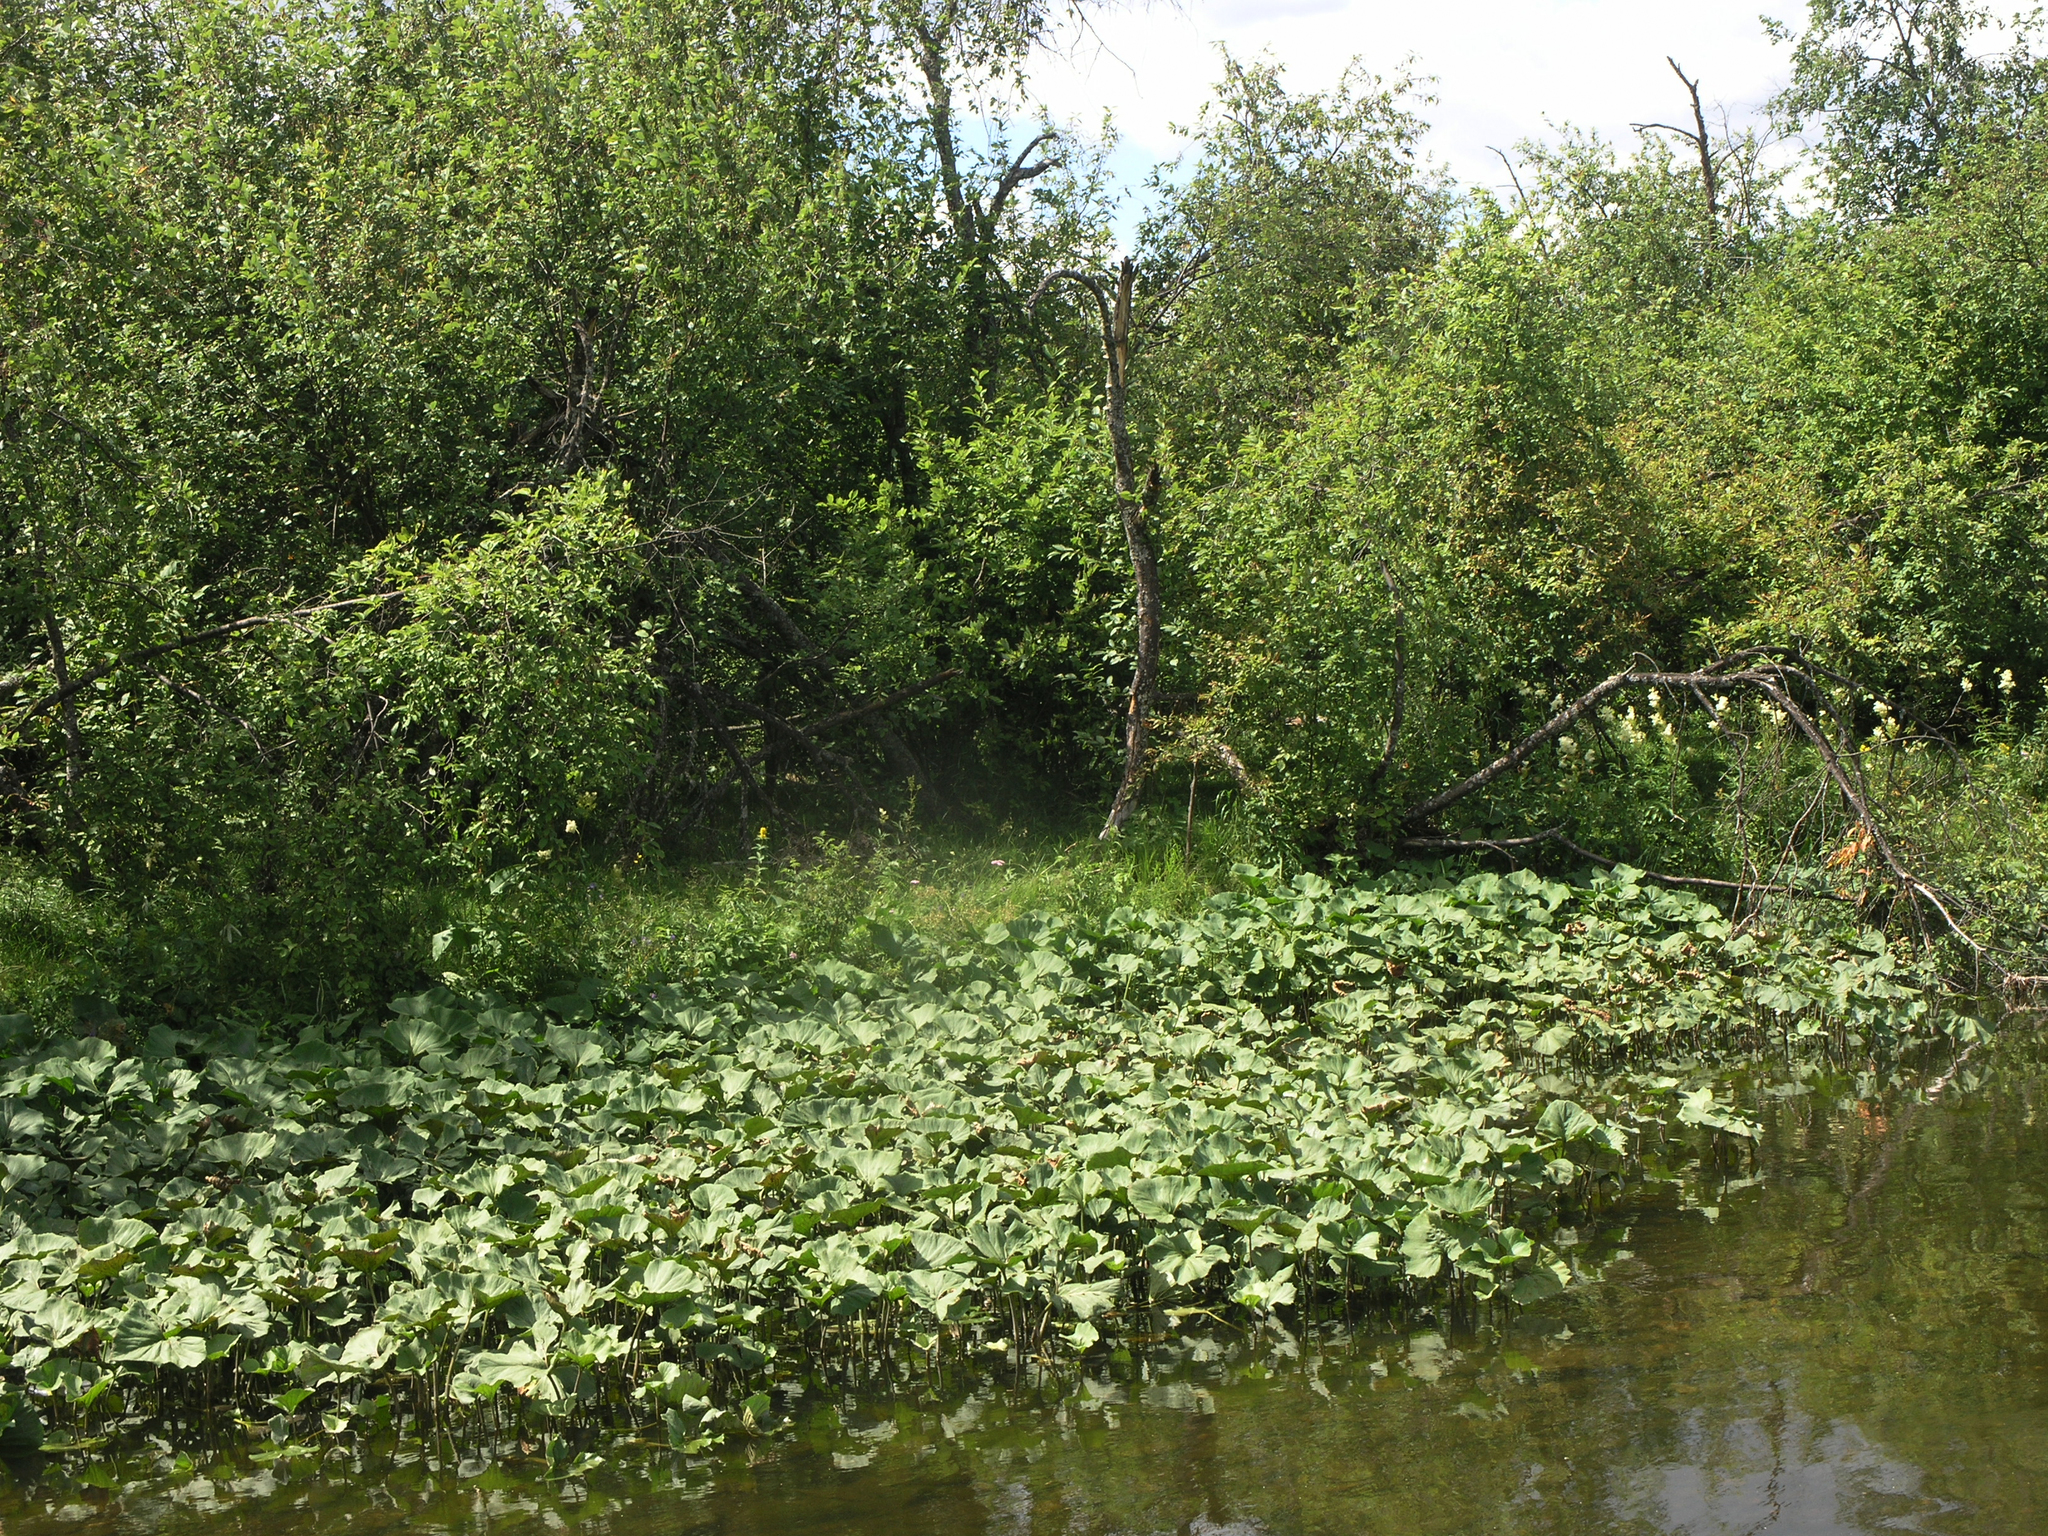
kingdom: Plantae
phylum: Tracheophyta
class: Magnoliopsida
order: Asterales
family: Asteraceae
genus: Petasites
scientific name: Petasites radiatus
